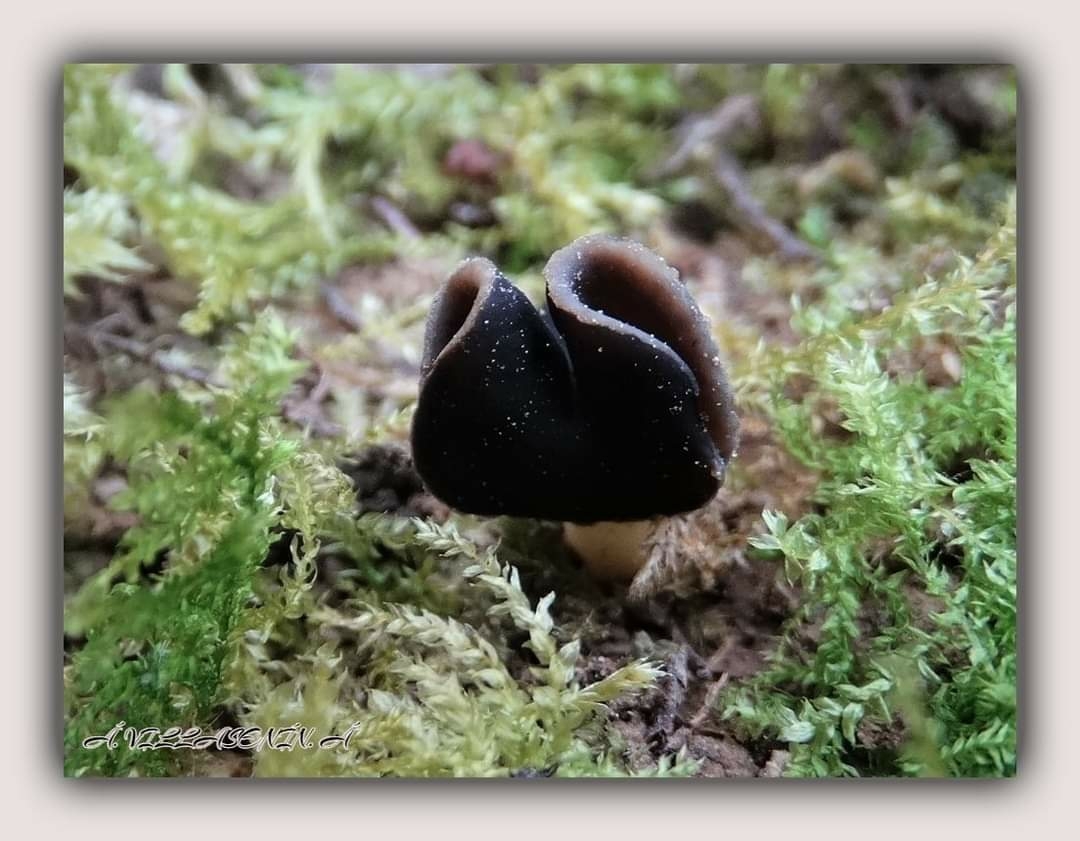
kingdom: Fungi
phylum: Ascomycota
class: Pezizomycetes
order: Pezizales
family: Helvellaceae
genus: Helvella
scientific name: Helvella monachella
